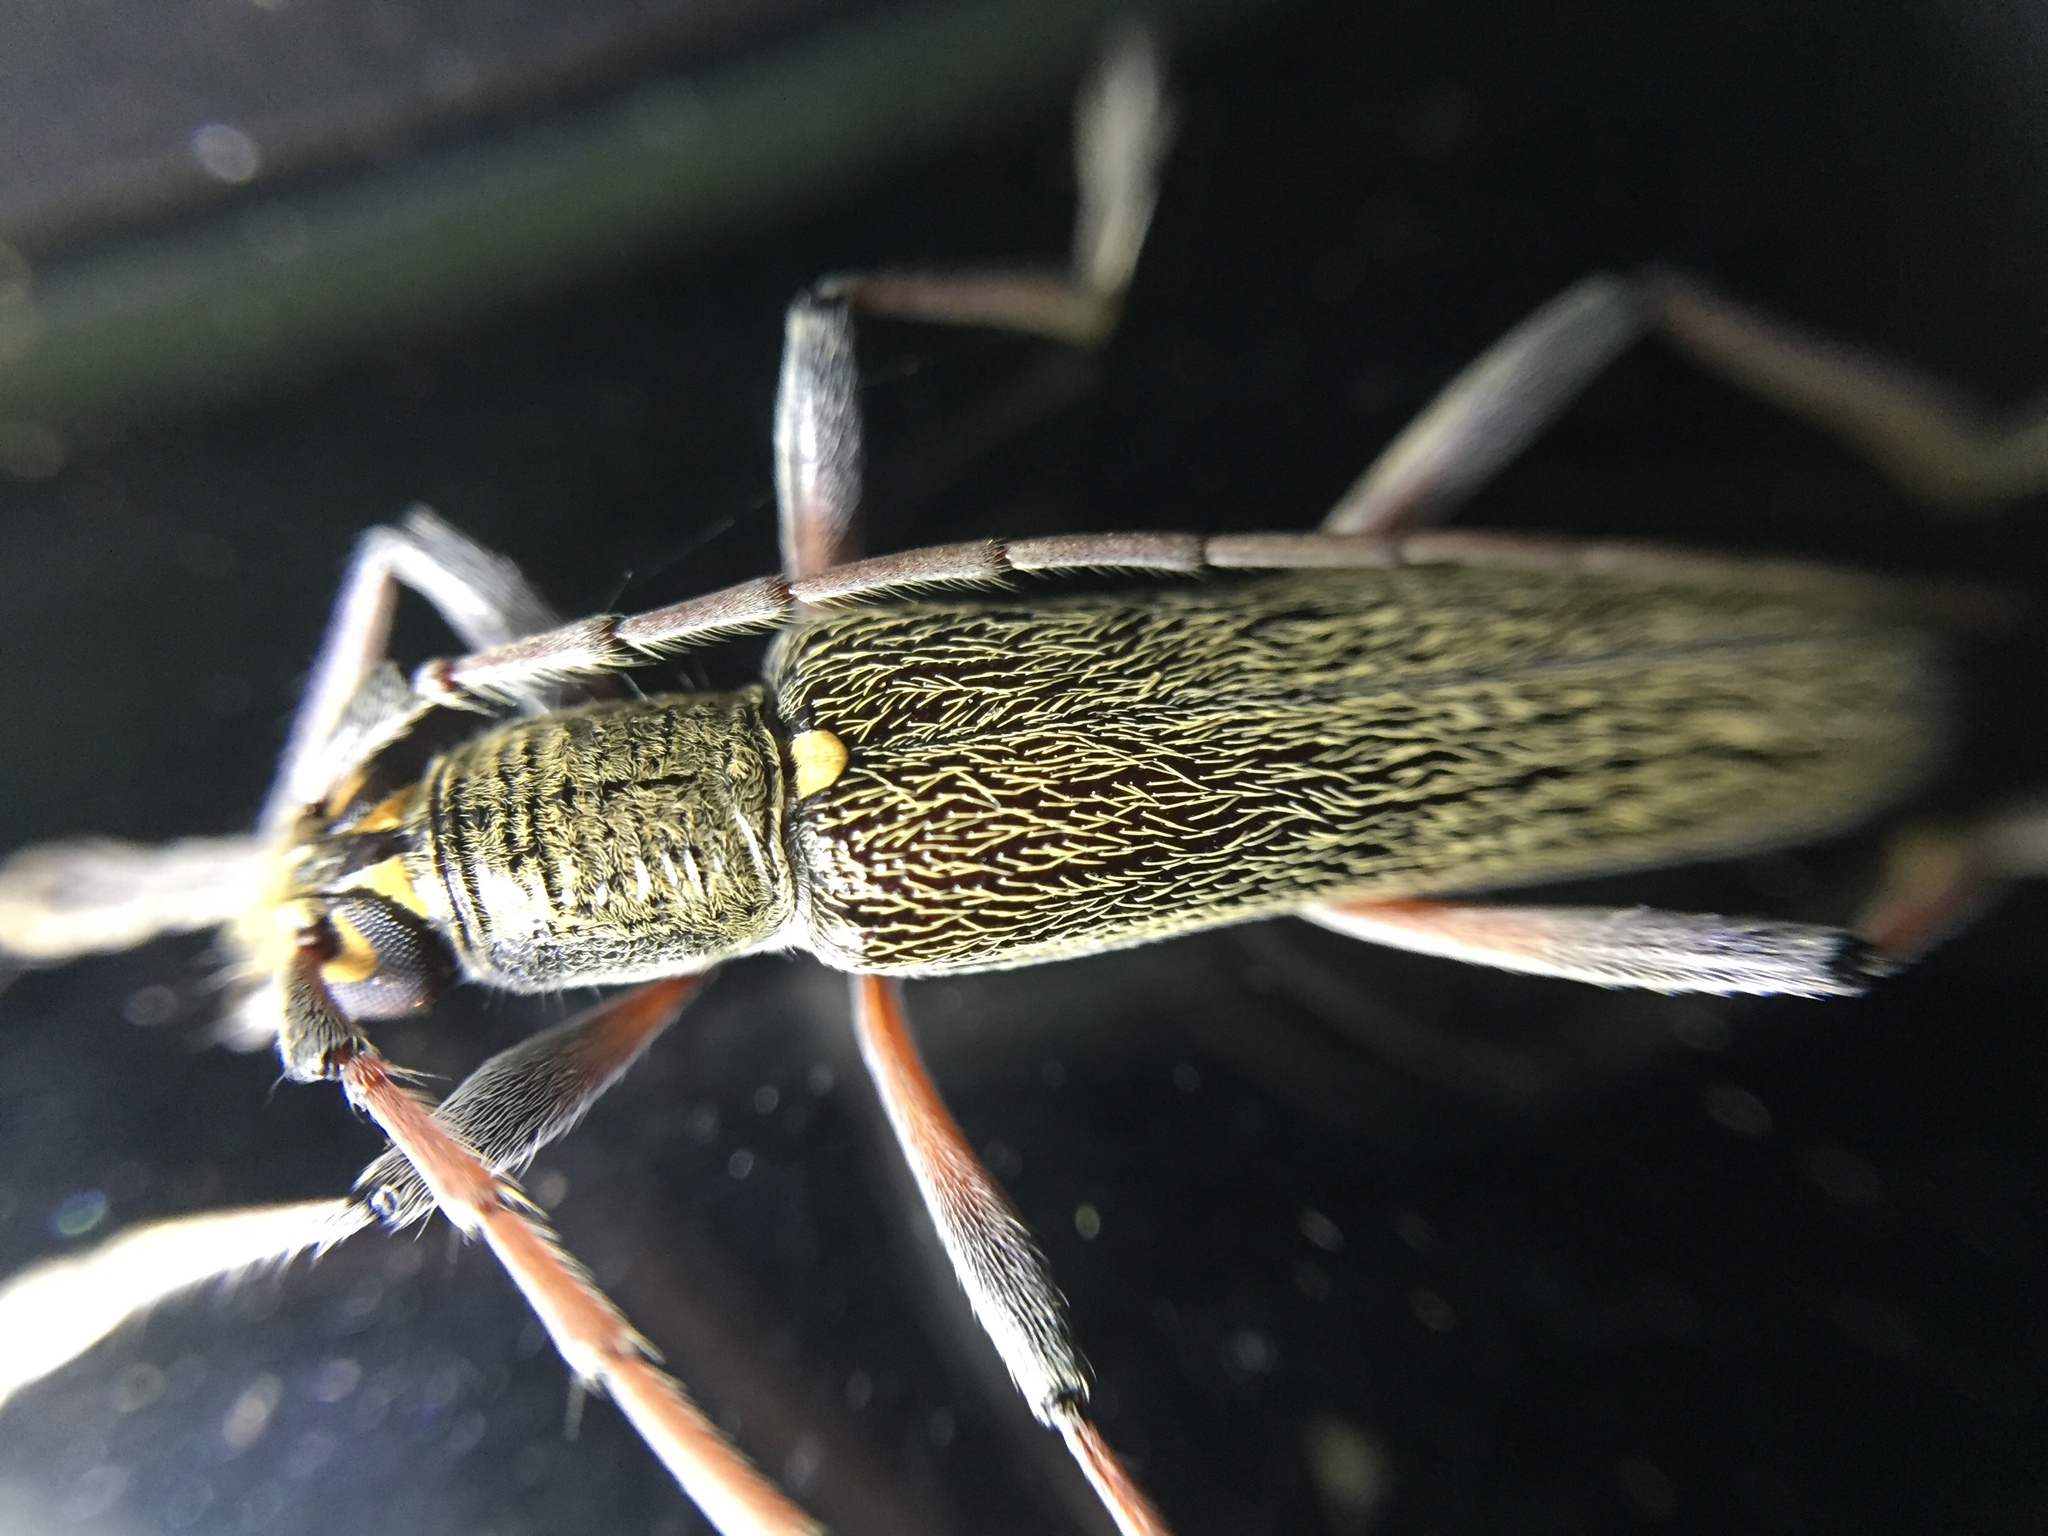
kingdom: Animalia
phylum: Arthropoda
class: Insecta
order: Coleoptera
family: Cerambycidae
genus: Oemona
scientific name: Oemona hirta
